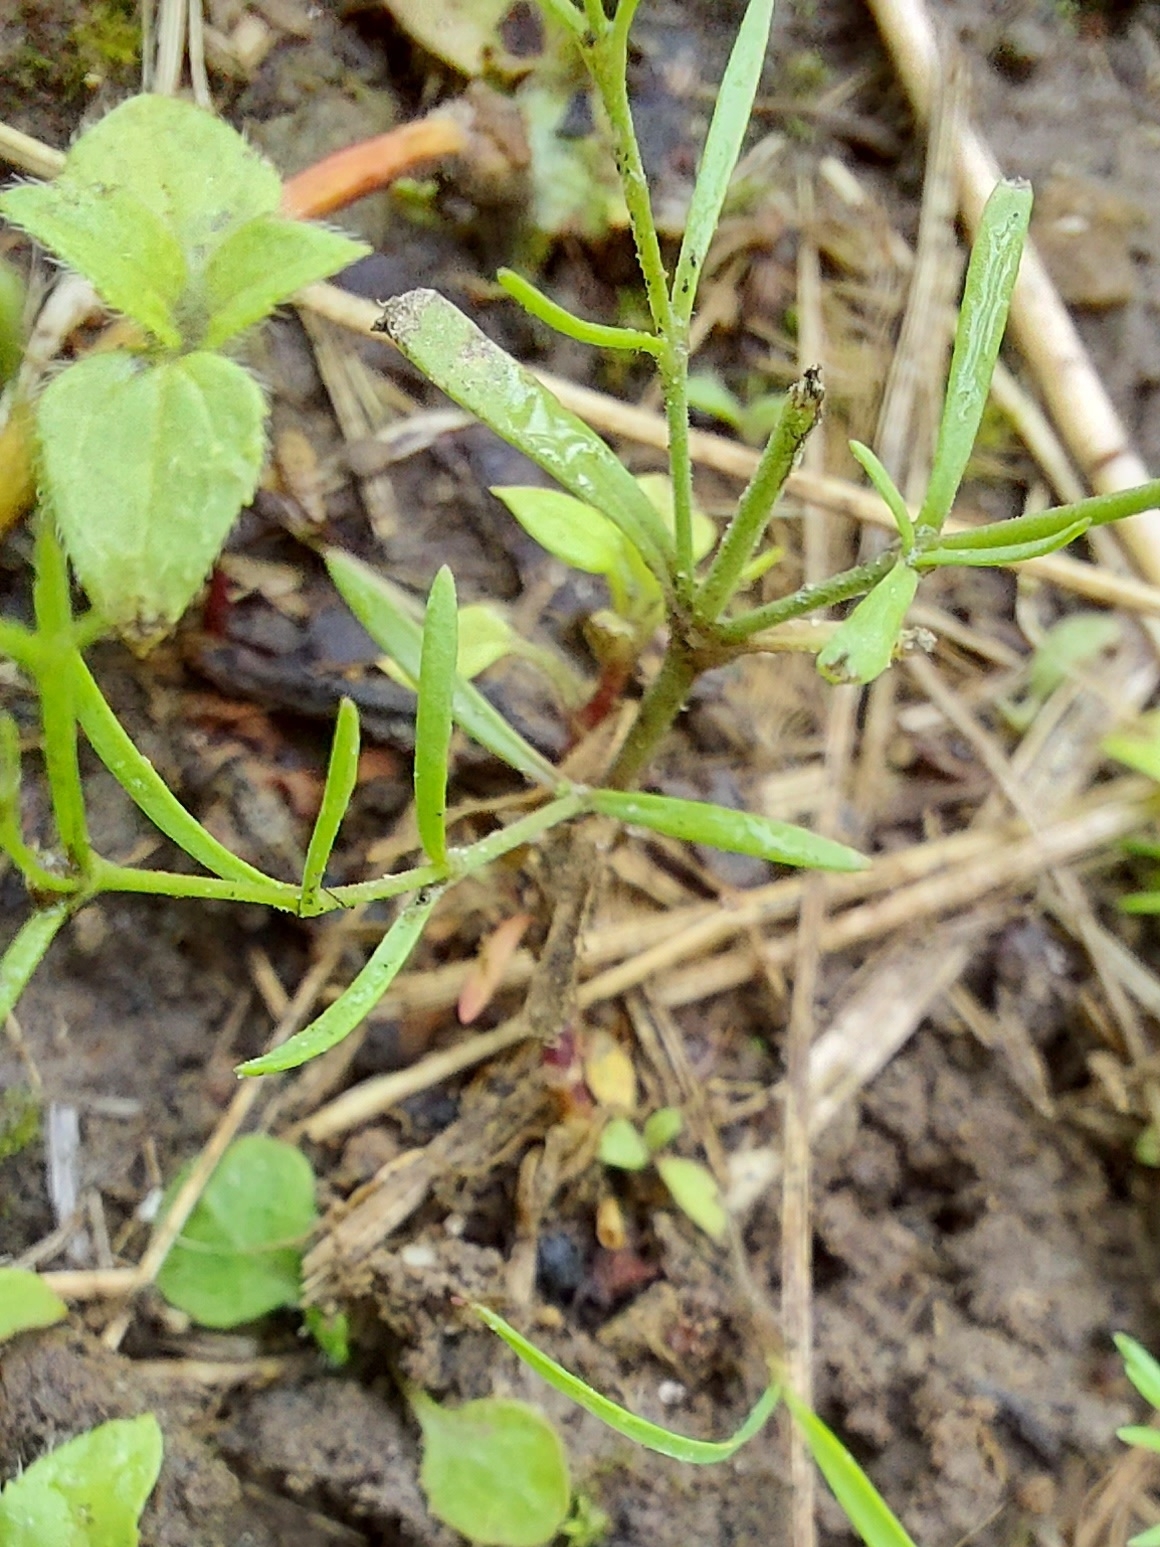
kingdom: Plantae
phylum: Tracheophyta
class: Magnoliopsida
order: Caryophyllales
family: Caryophyllaceae
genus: Psammophiliella
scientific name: Psammophiliella muralis
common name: Cushion baby's-breath
